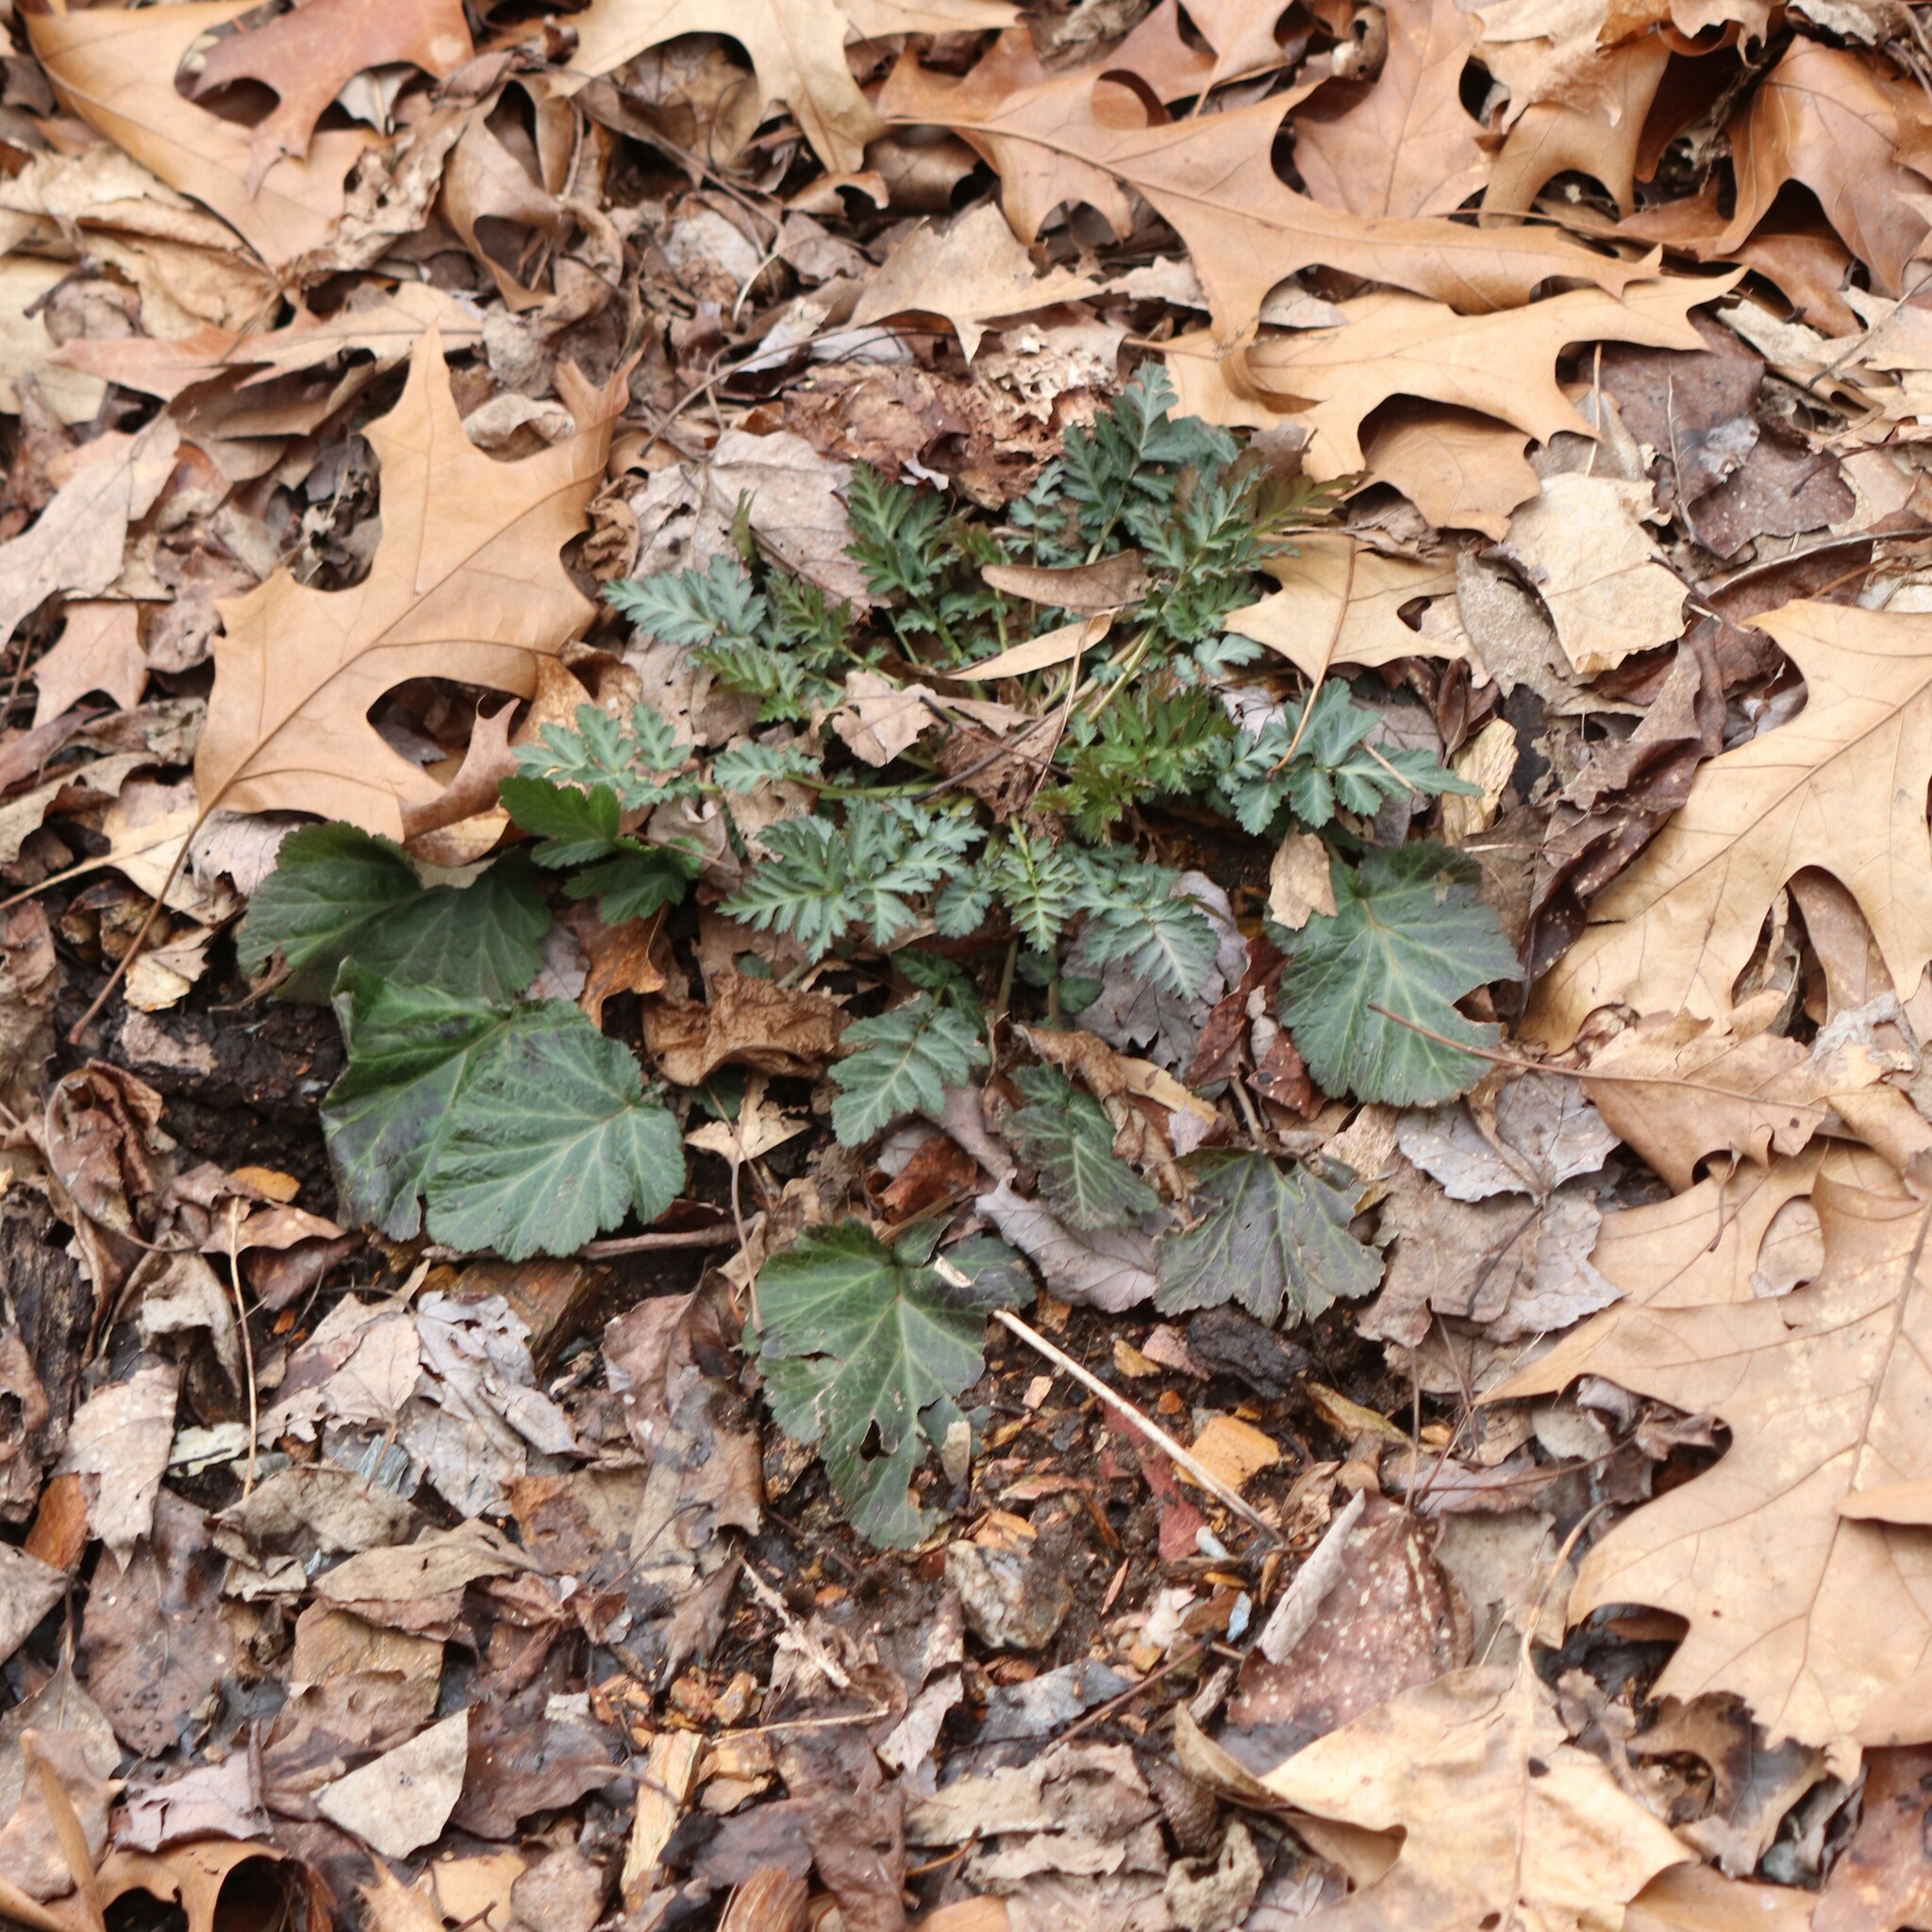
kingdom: Plantae
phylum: Tracheophyta
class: Magnoliopsida
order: Rosales
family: Rosaceae
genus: Geum
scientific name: Geum canadense
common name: White avens
